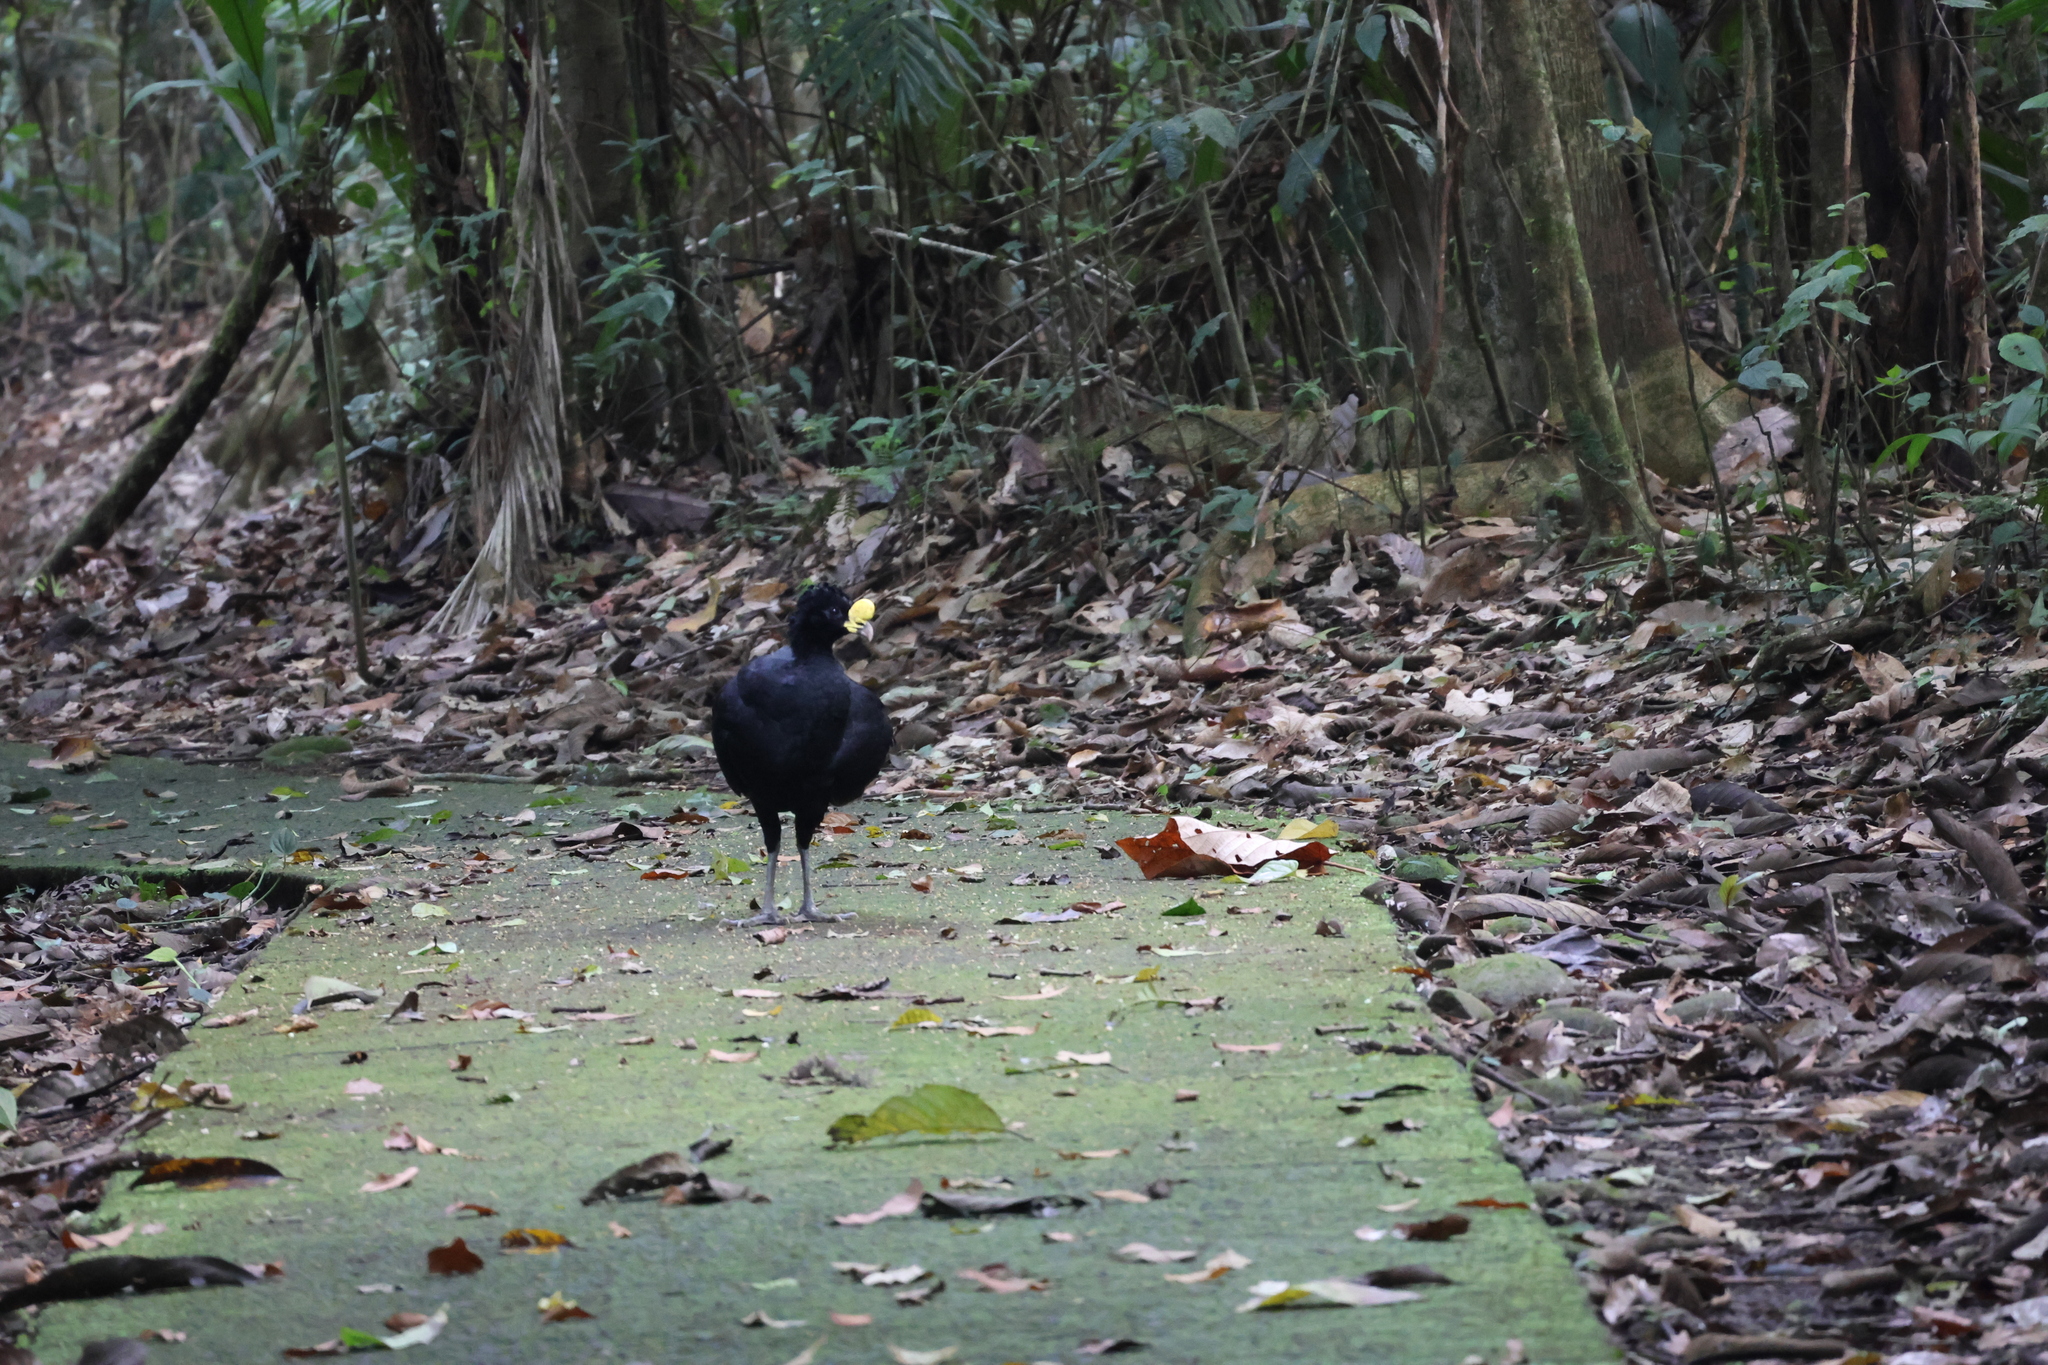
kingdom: Animalia
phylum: Chordata
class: Aves
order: Galliformes
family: Cracidae
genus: Crax
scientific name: Crax rubra
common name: Great curassow
